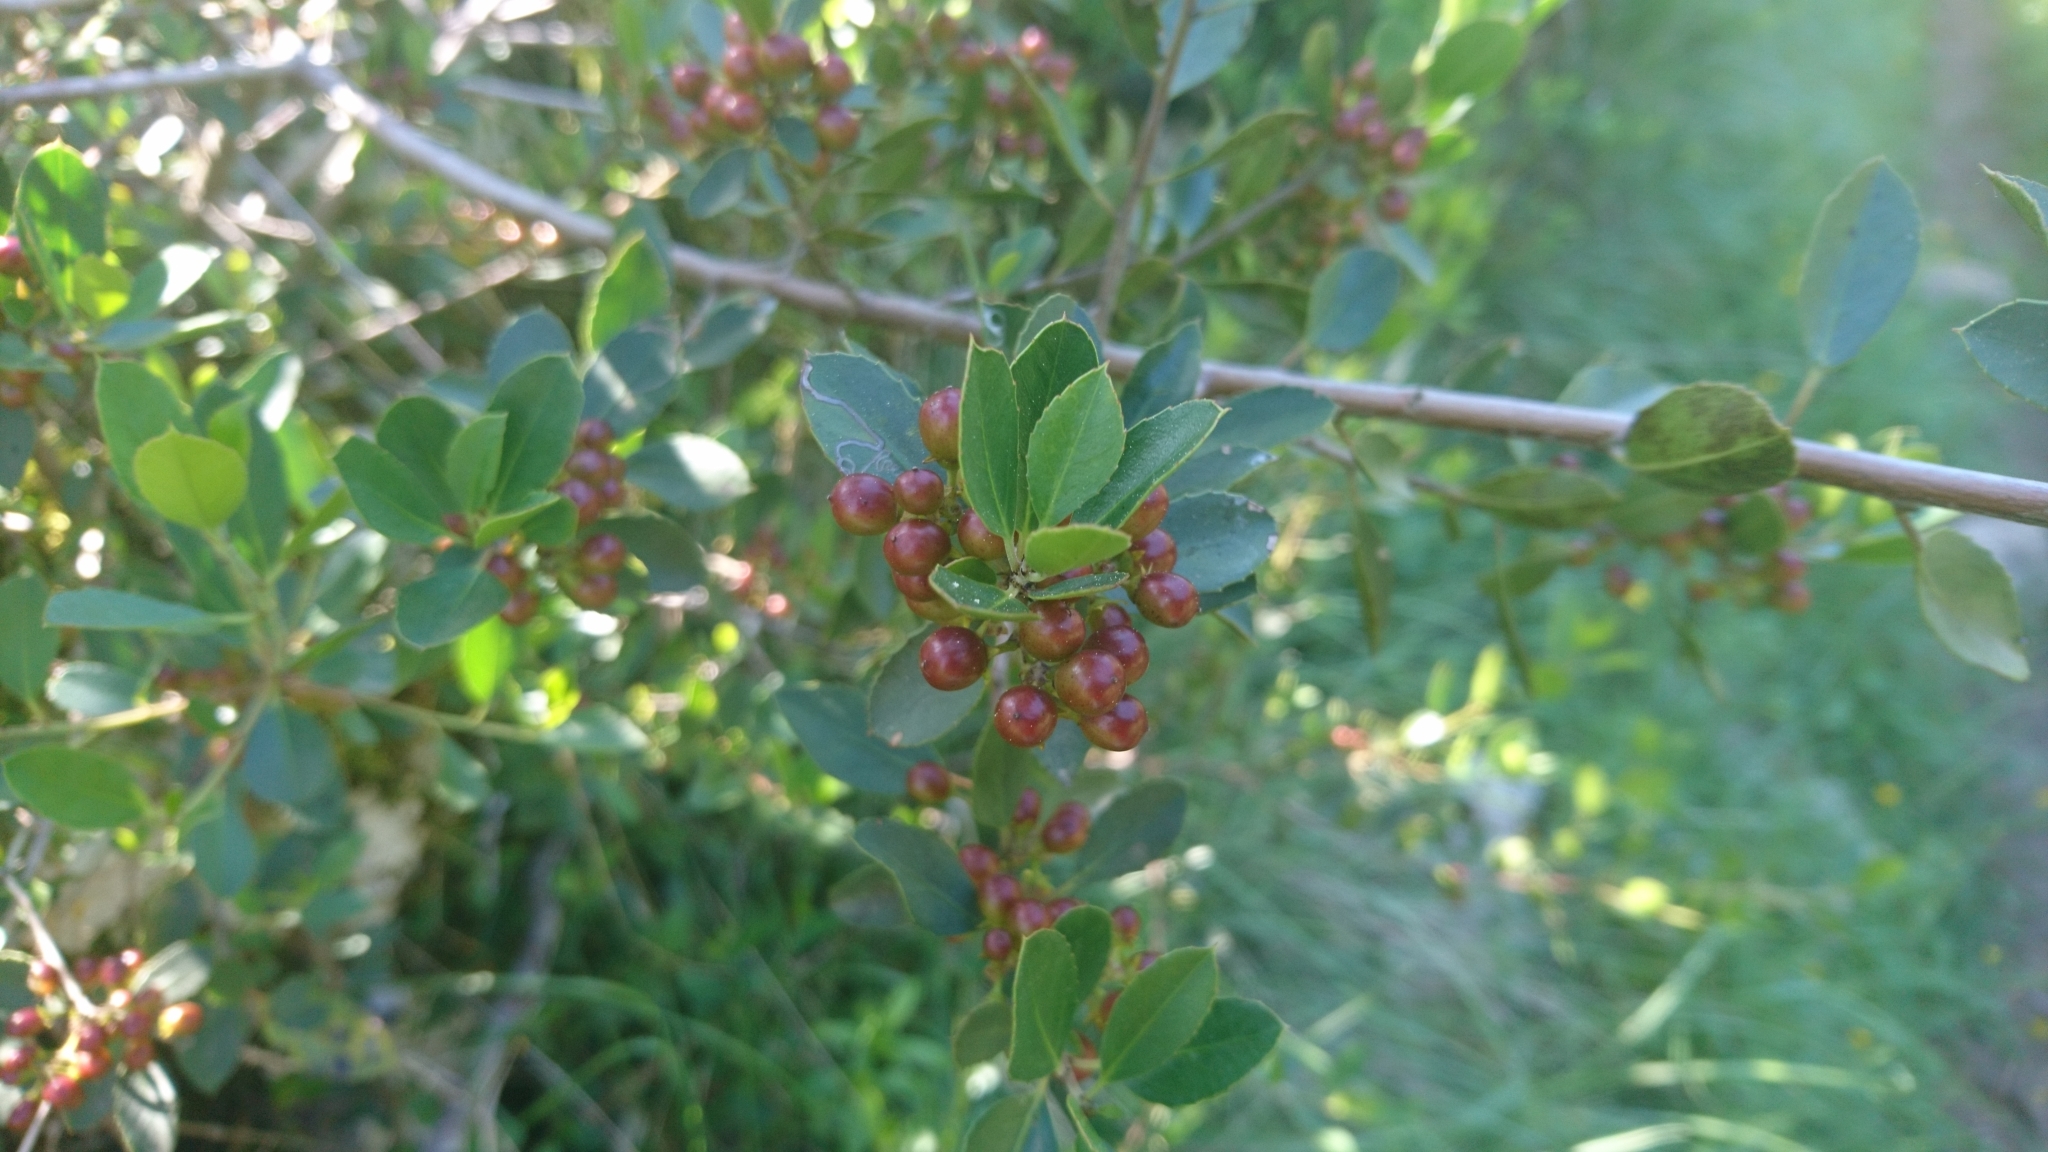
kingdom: Plantae
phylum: Tracheophyta
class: Magnoliopsida
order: Rosales
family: Rhamnaceae
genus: Rhamnus
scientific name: Rhamnus alaternus
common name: Mediterranean buckthorn
